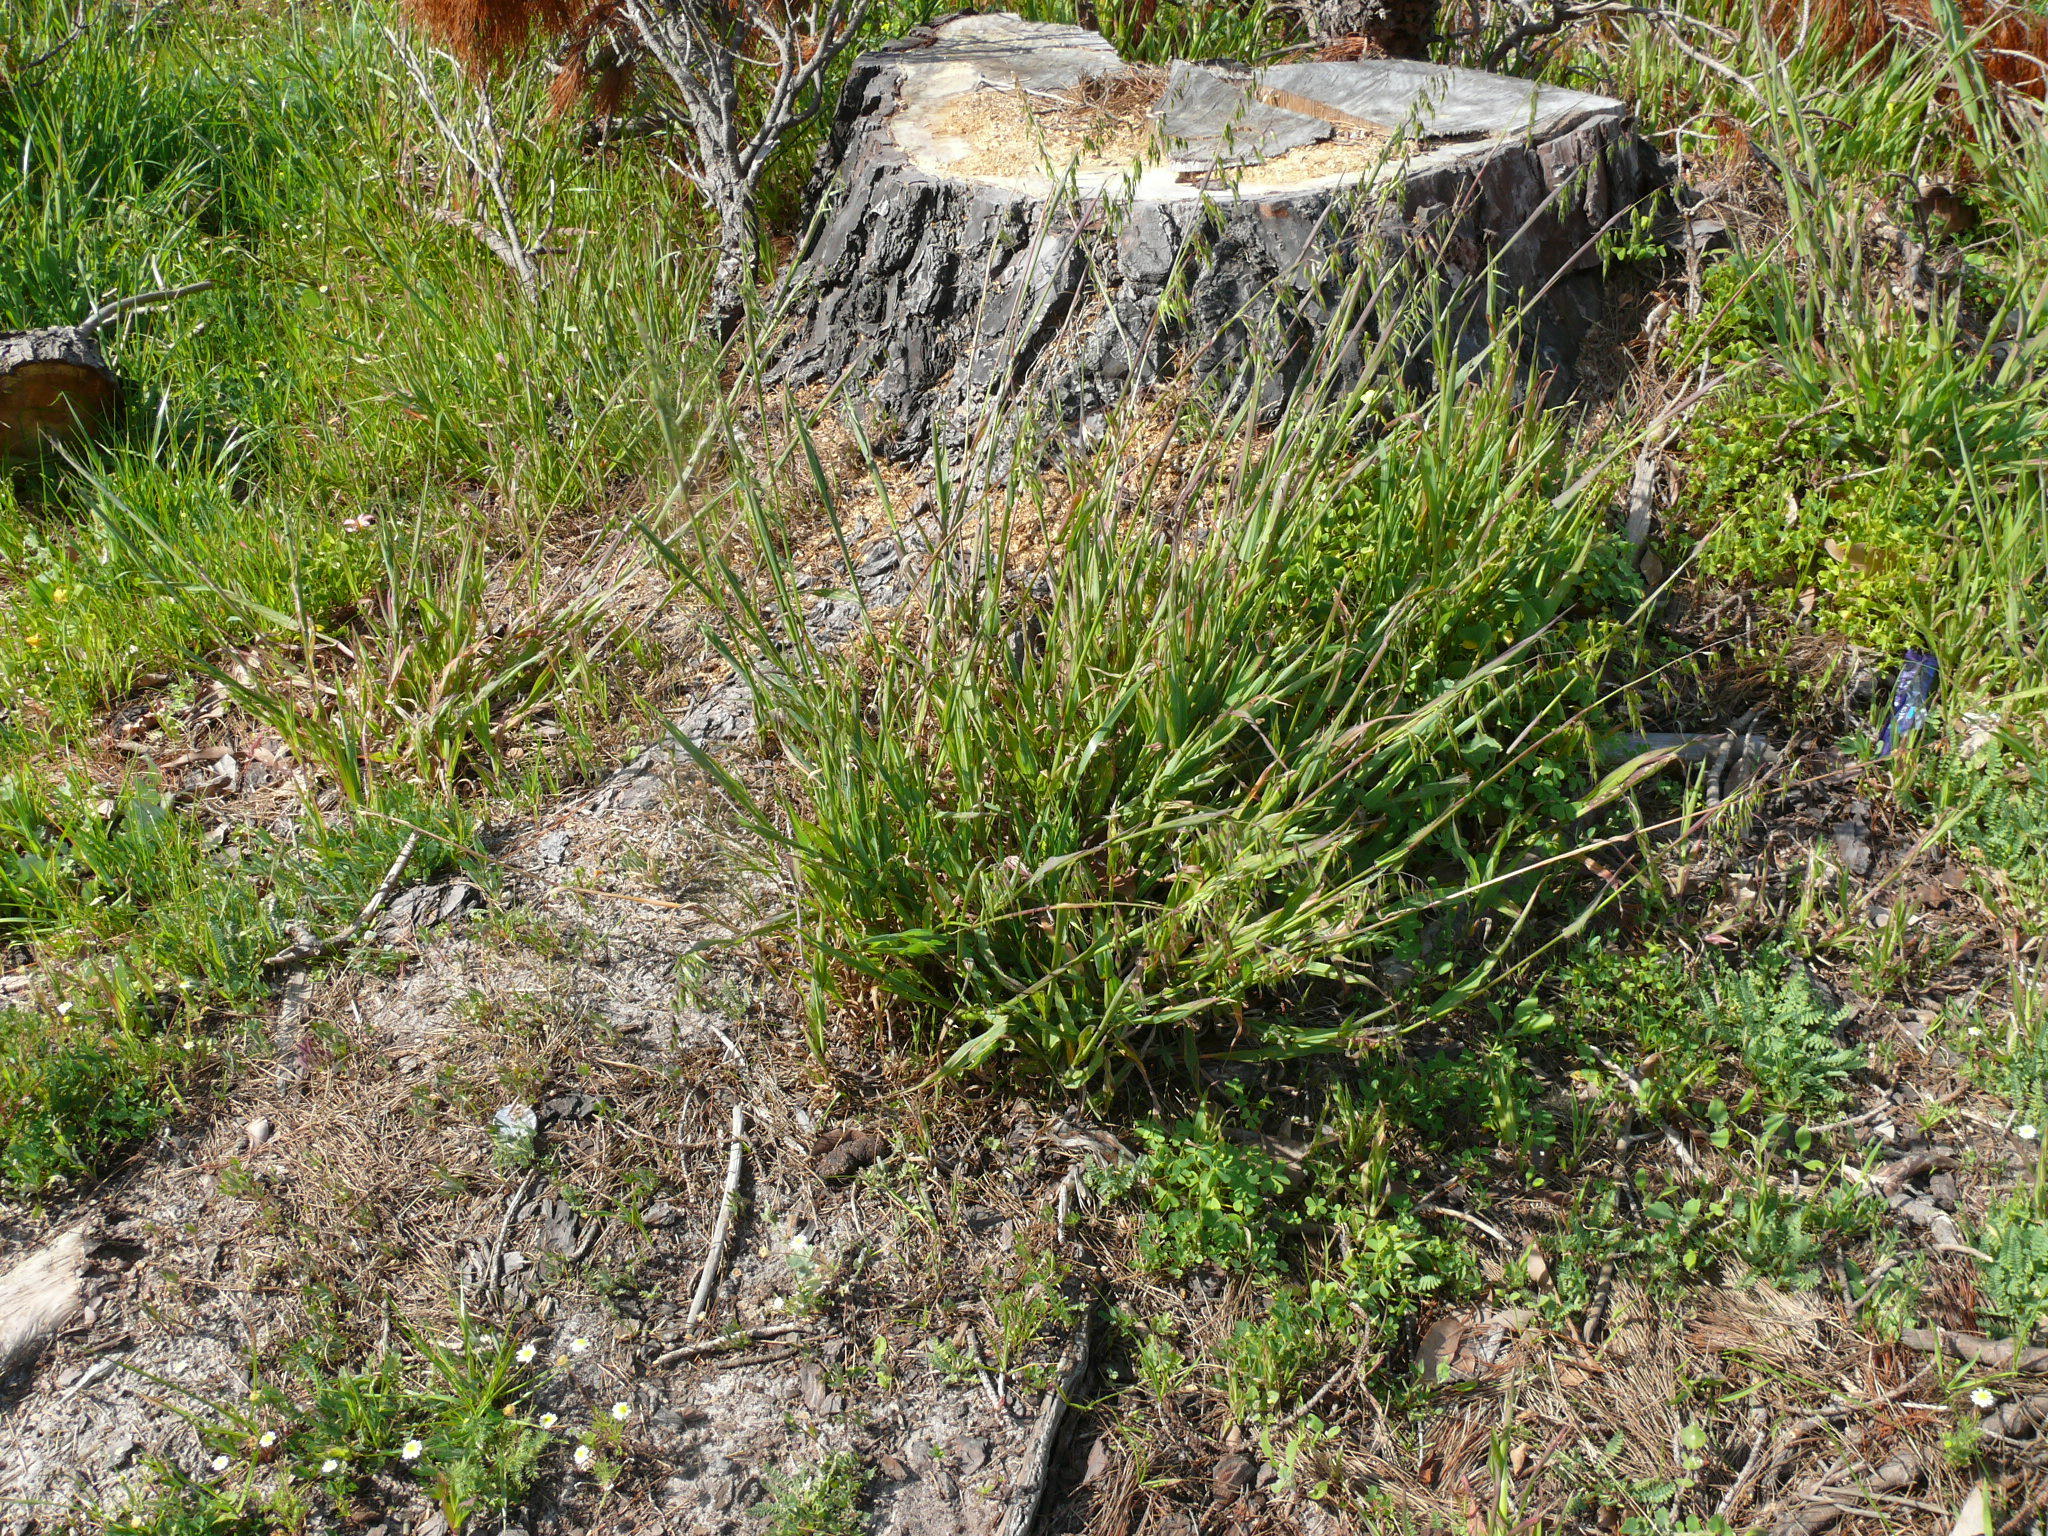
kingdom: Plantae
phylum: Tracheophyta
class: Liliopsida
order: Poales
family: Poaceae
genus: Ehrharta
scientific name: Ehrharta calycina
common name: Perennial veldtgrass
